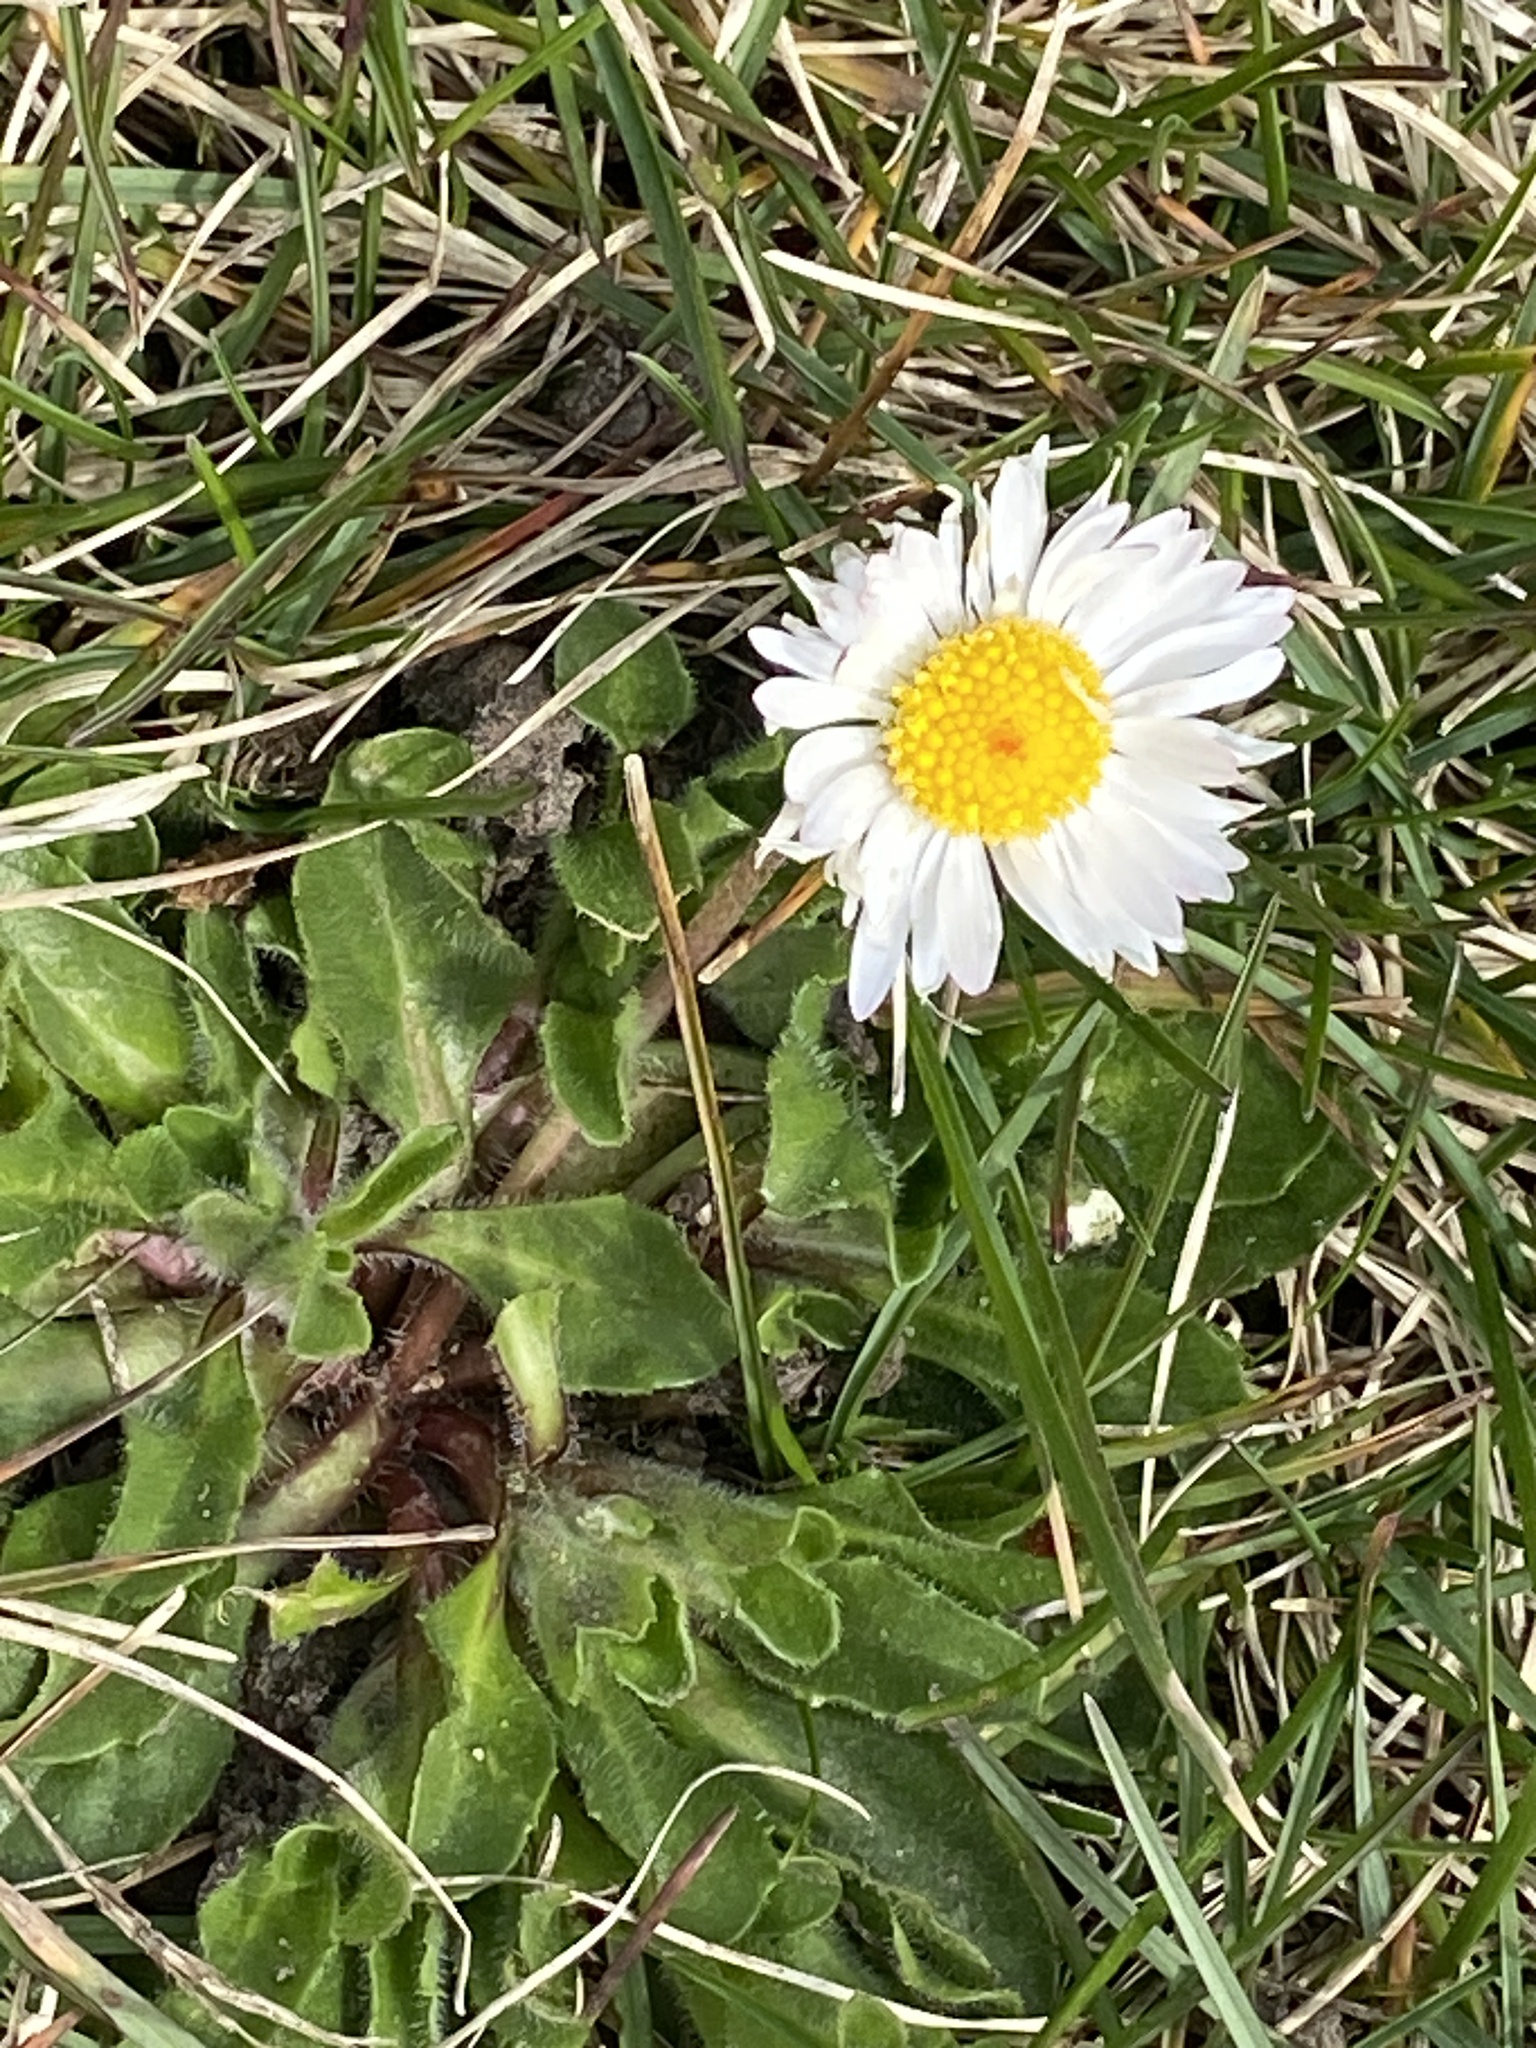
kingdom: Plantae
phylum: Tracheophyta
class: Magnoliopsida
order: Asterales
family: Asteraceae
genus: Bellis
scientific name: Bellis perennis
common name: Lawndaisy
